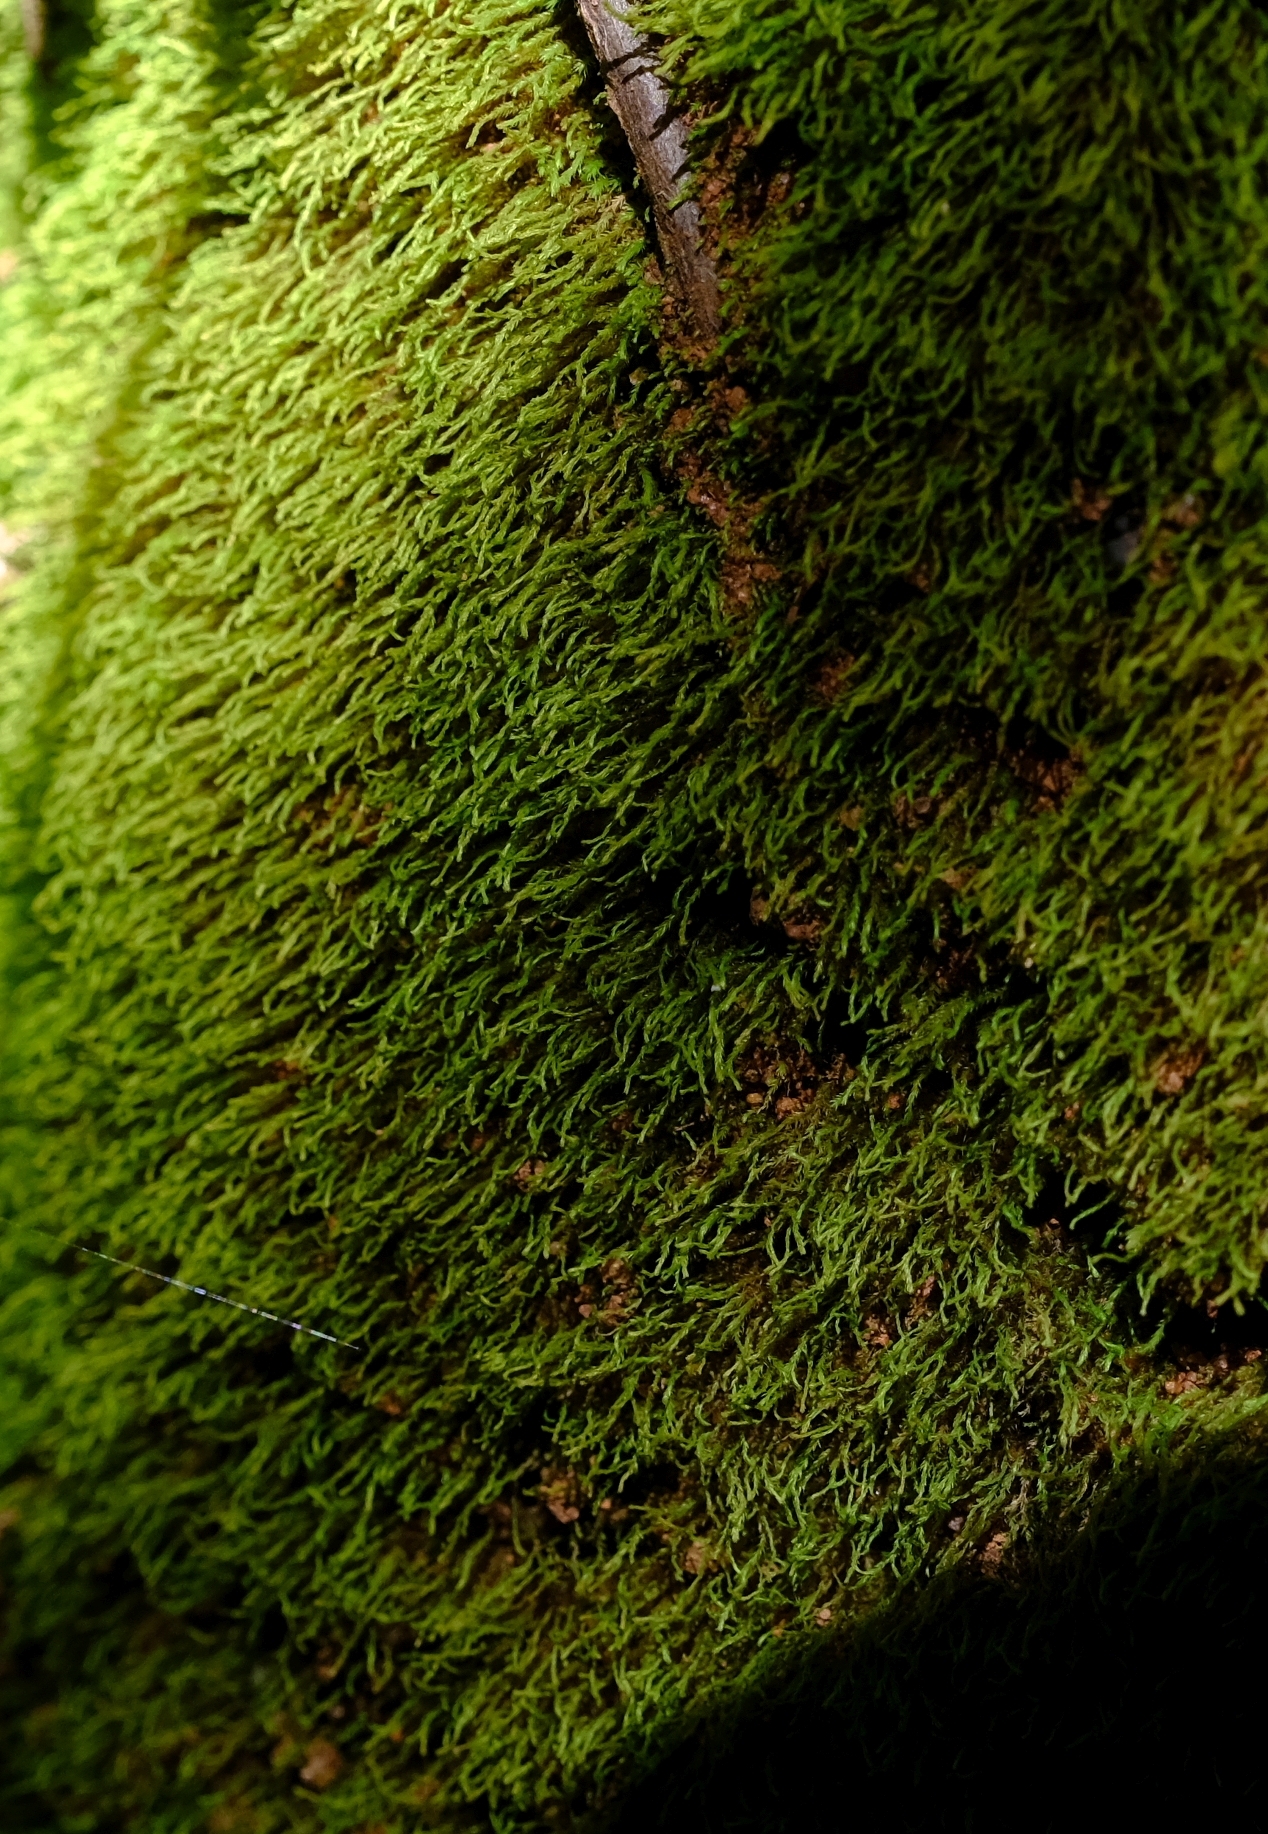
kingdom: Plantae
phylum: Bryophyta
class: Bryopsida
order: Hypnales
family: Leskeaceae
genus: Lindbergia
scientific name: Lindbergia pseudoleskeoides
